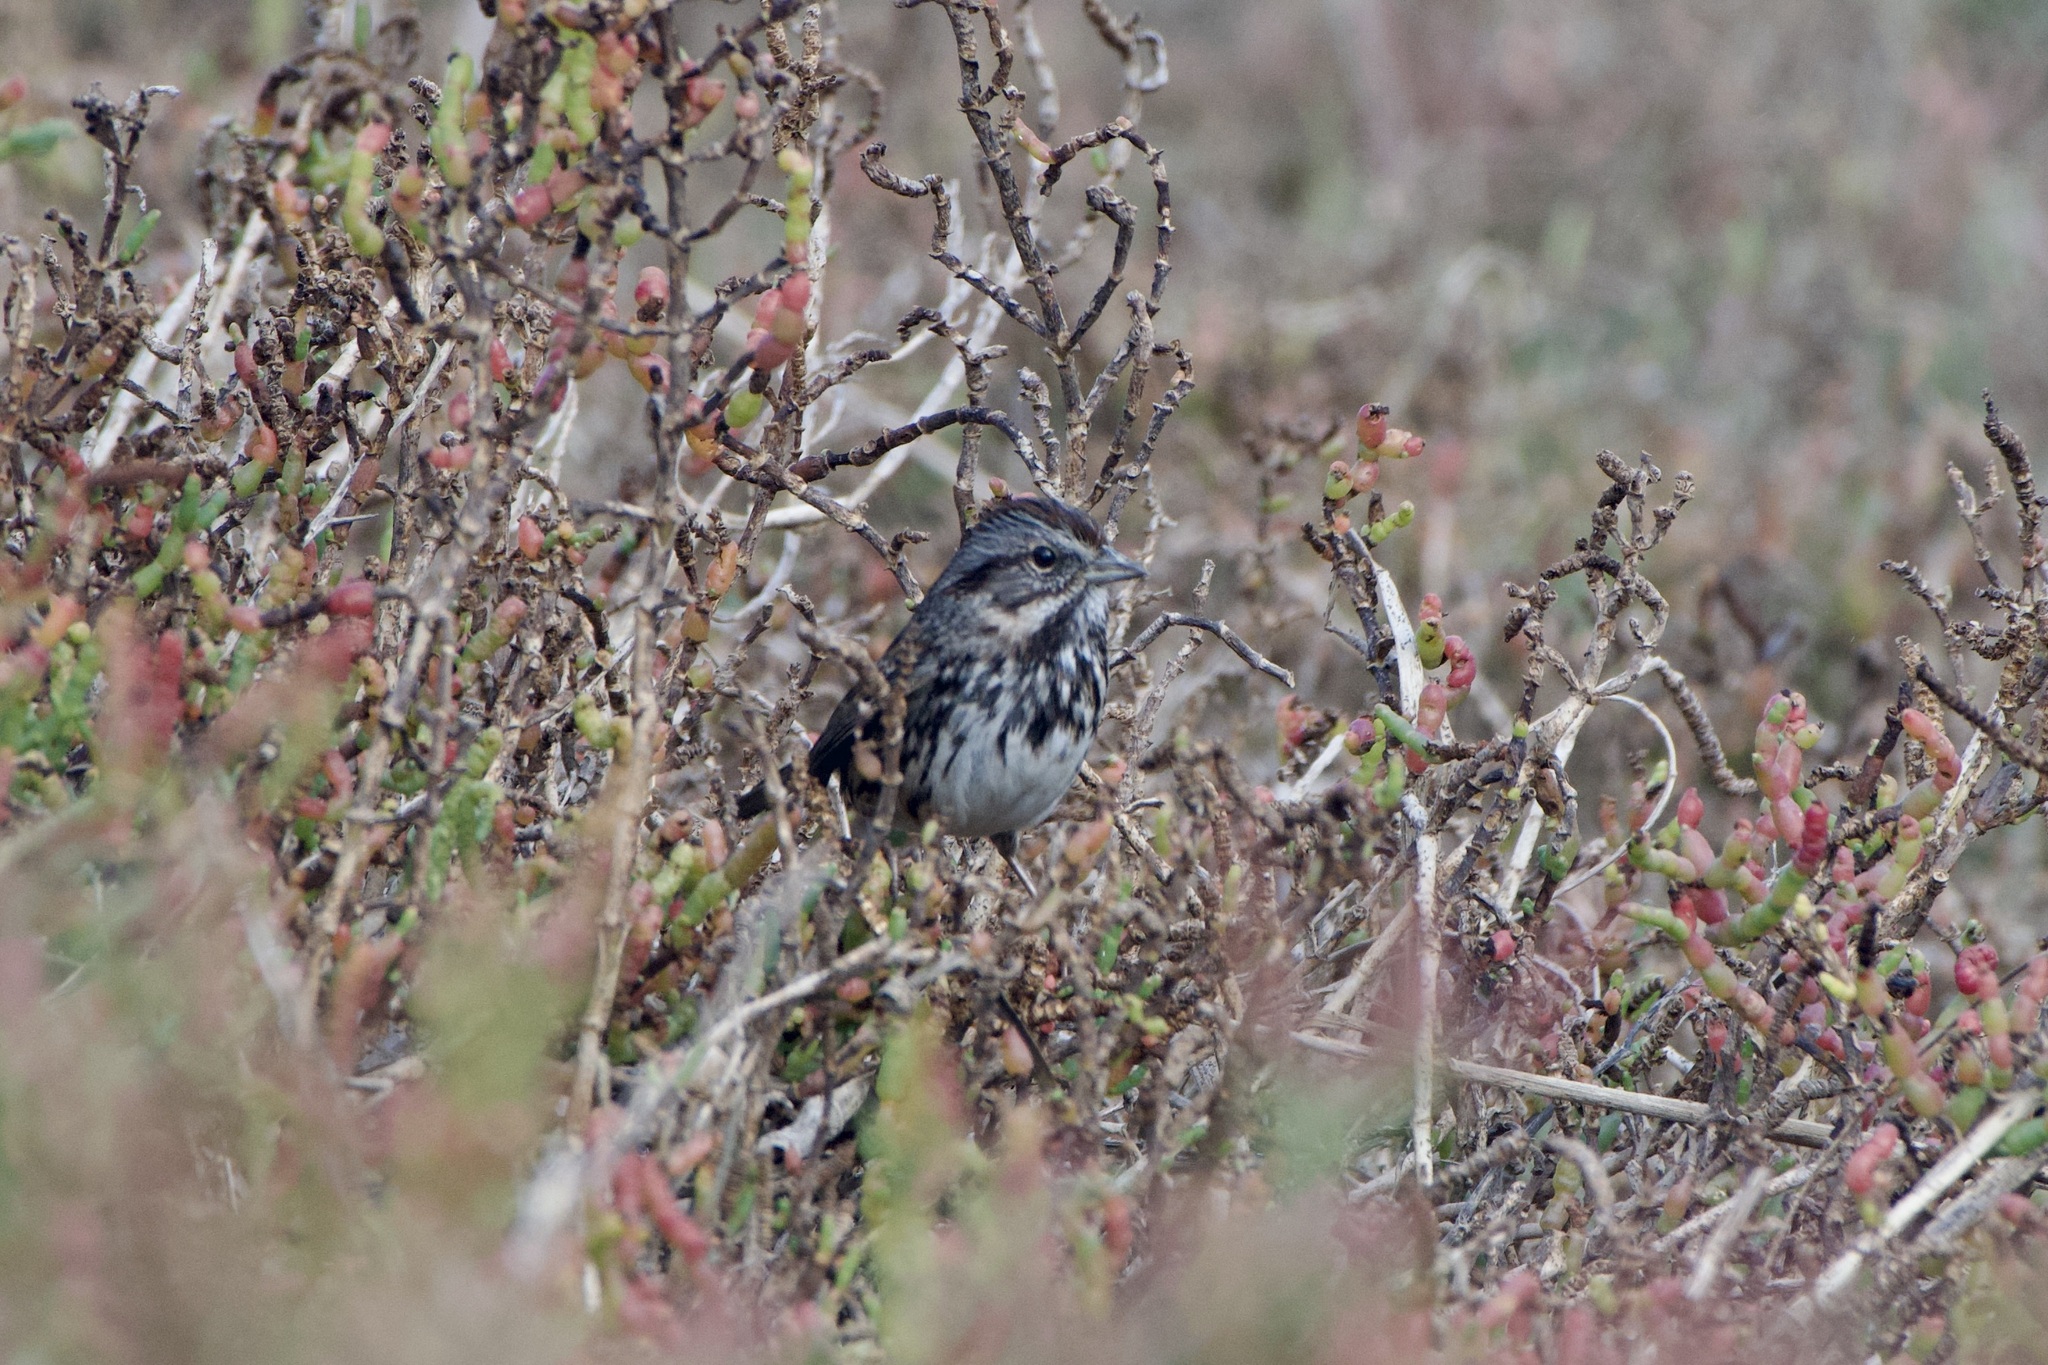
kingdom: Animalia
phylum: Chordata
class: Aves
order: Passeriformes
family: Passerellidae
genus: Melospiza
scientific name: Melospiza melodia
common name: Song sparrow
